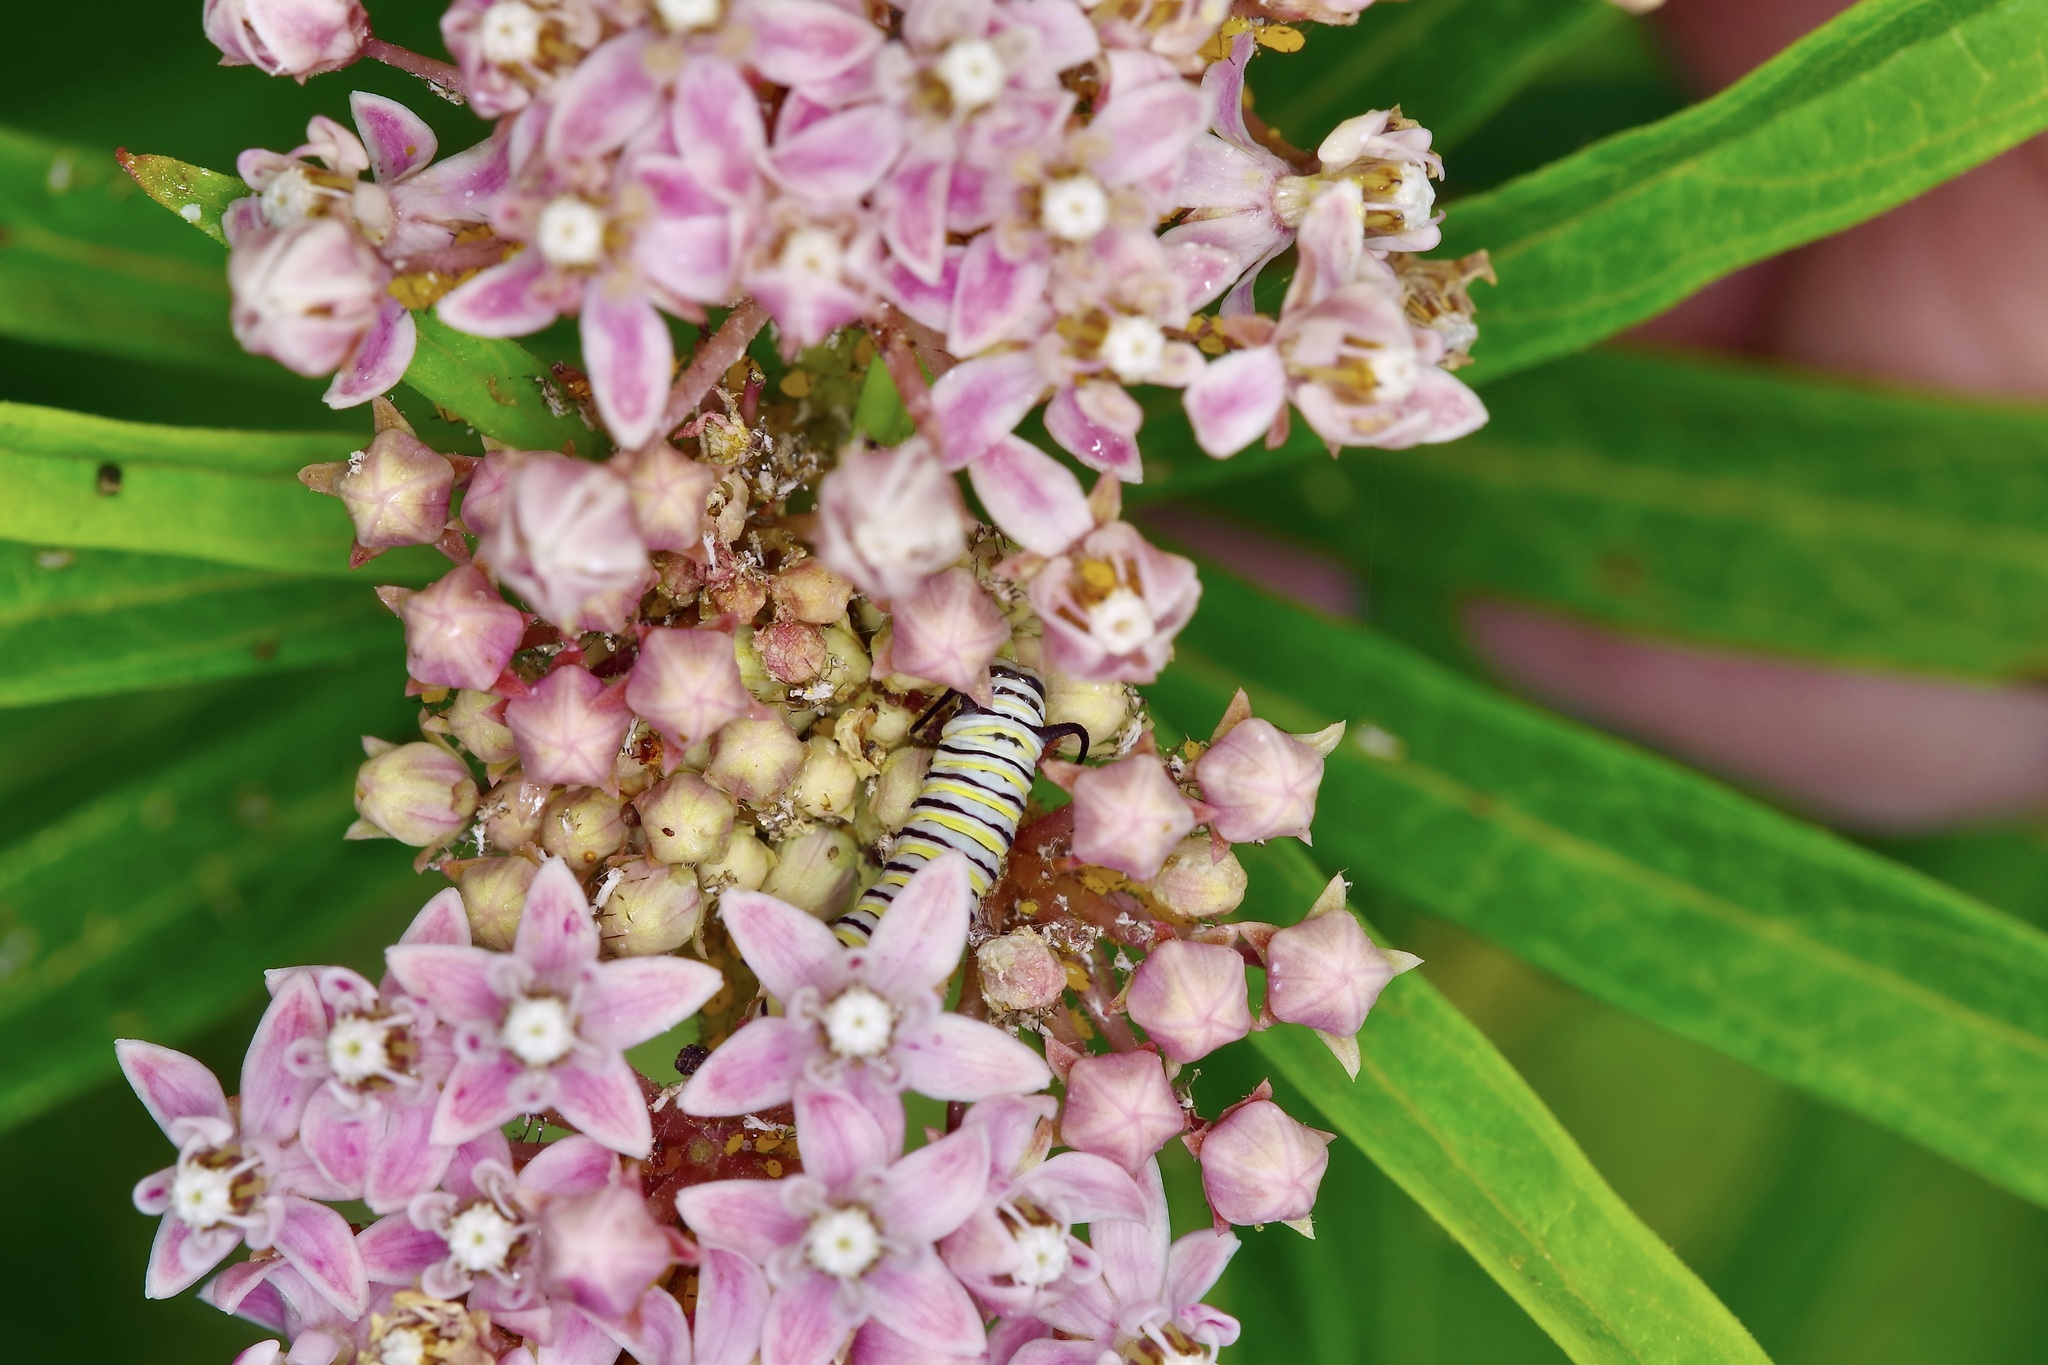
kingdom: Animalia
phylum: Arthropoda
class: Insecta
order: Lepidoptera
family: Nymphalidae
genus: Danaus
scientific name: Danaus plexippus
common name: Monarch
